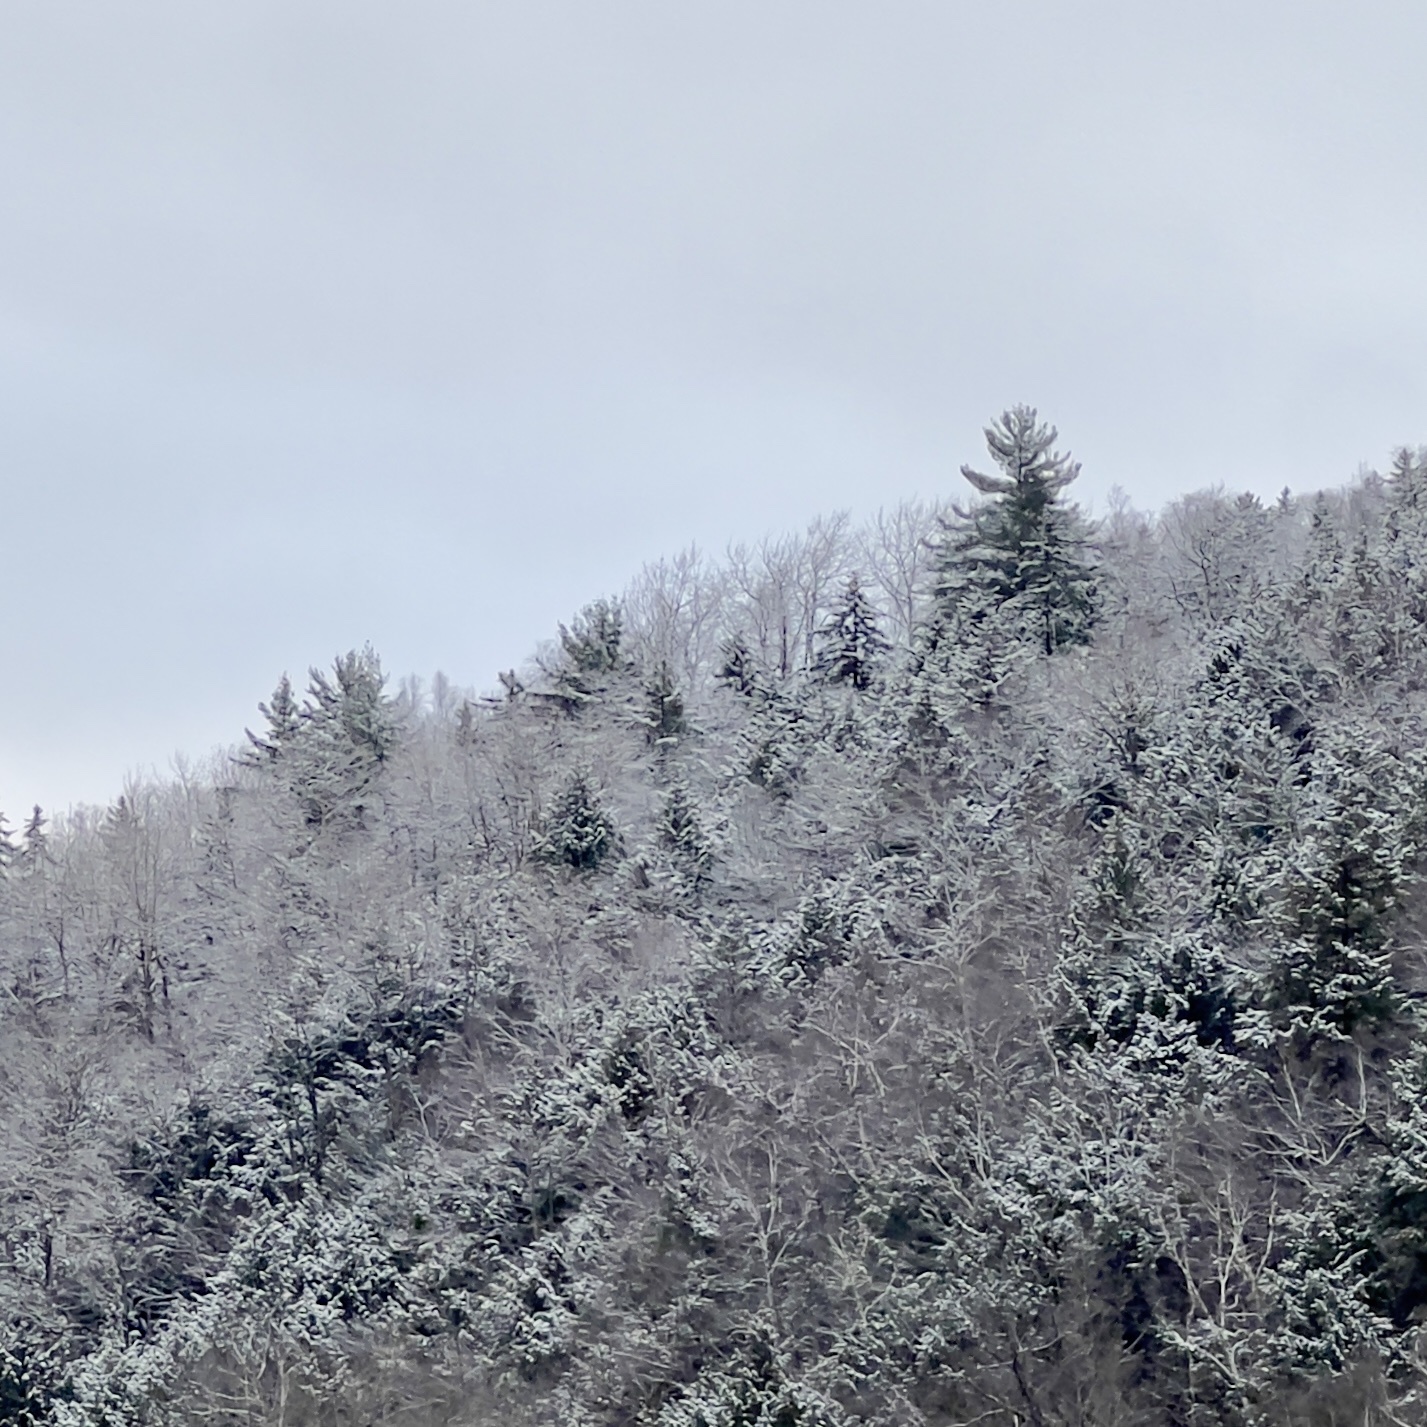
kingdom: Plantae
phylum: Tracheophyta
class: Pinopsida
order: Pinales
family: Pinaceae
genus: Pinus
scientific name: Pinus strobus
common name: Weymouth pine
